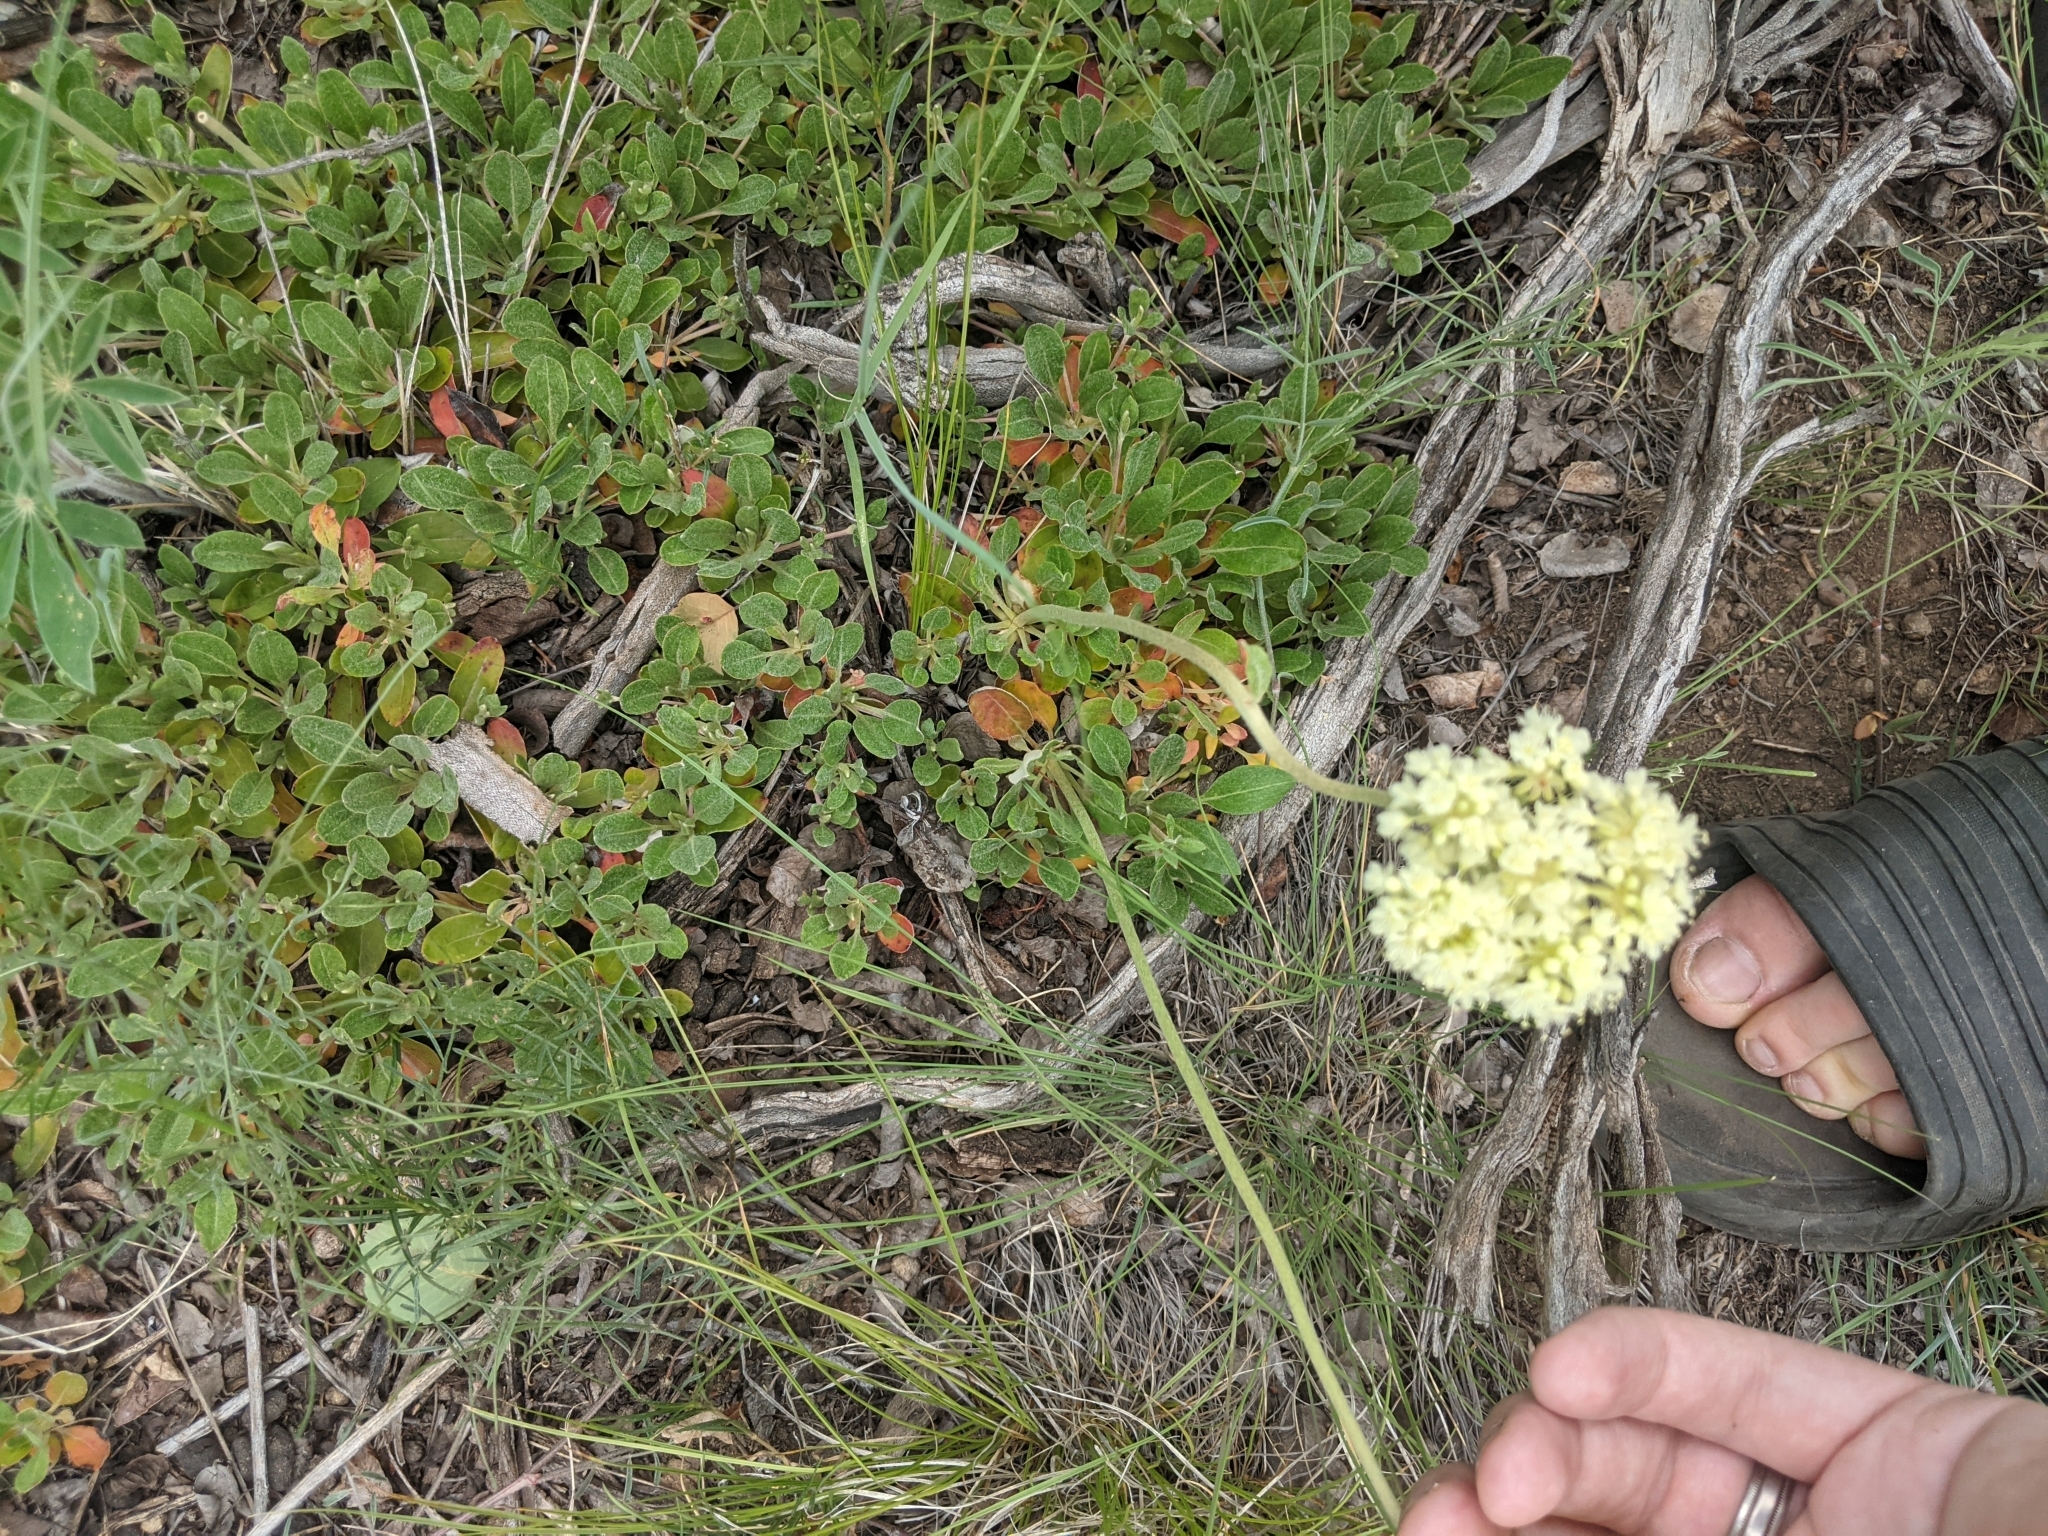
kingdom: Plantae
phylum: Tracheophyta
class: Magnoliopsida
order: Caryophyllales
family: Polygonaceae
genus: Eriogonum
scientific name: Eriogonum umbellatum
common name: Sulfur-buckwheat
